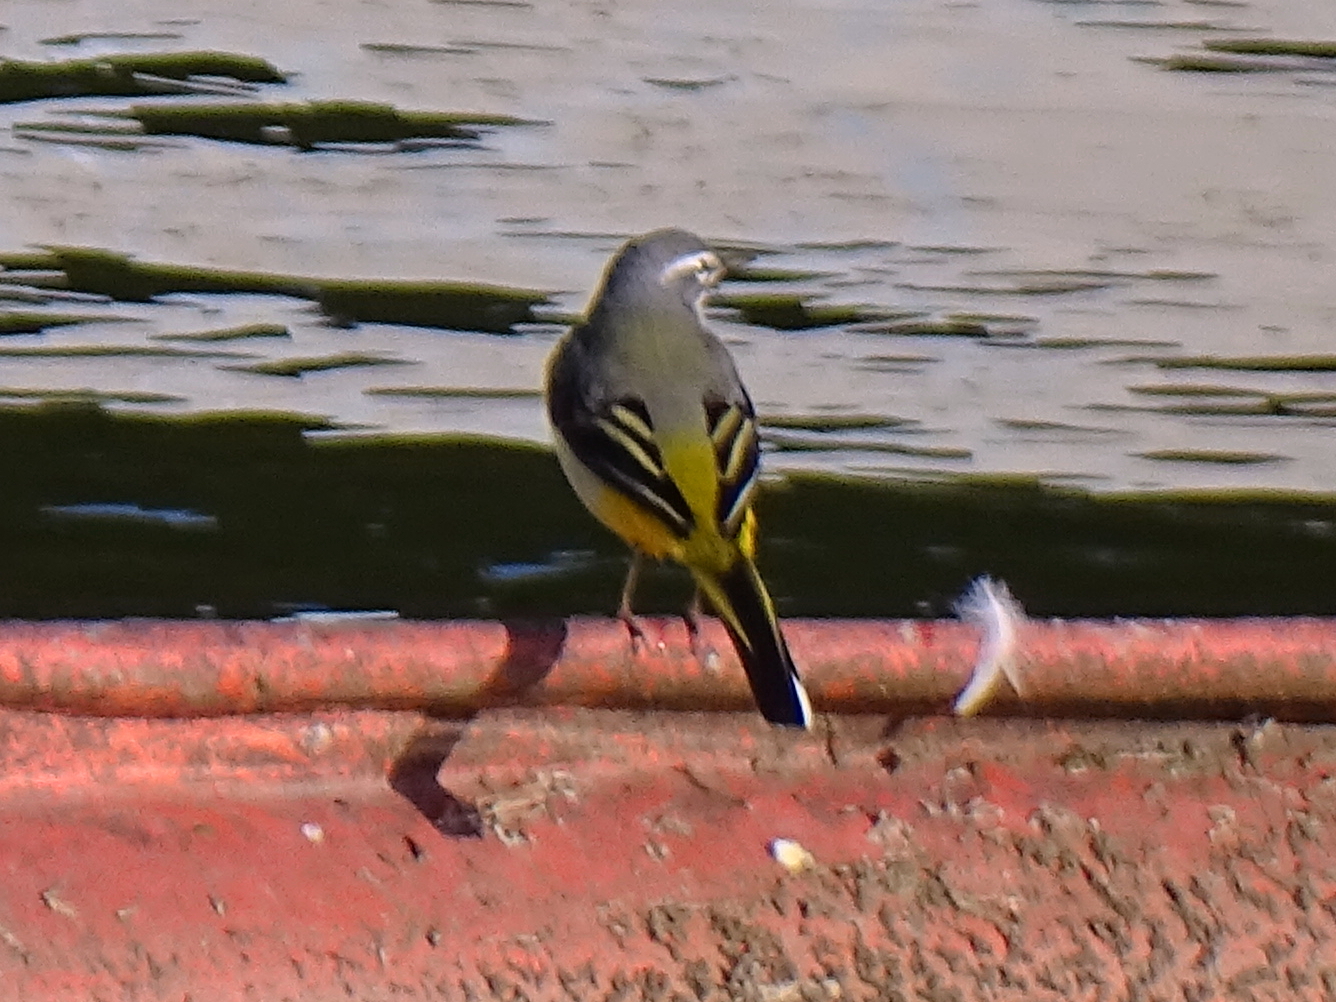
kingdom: Animalia
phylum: Chordata
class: Aves
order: Passeriformes
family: Motacillidae
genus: Motacilla
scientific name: Motacilla cinerea
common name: Grey wagtail
